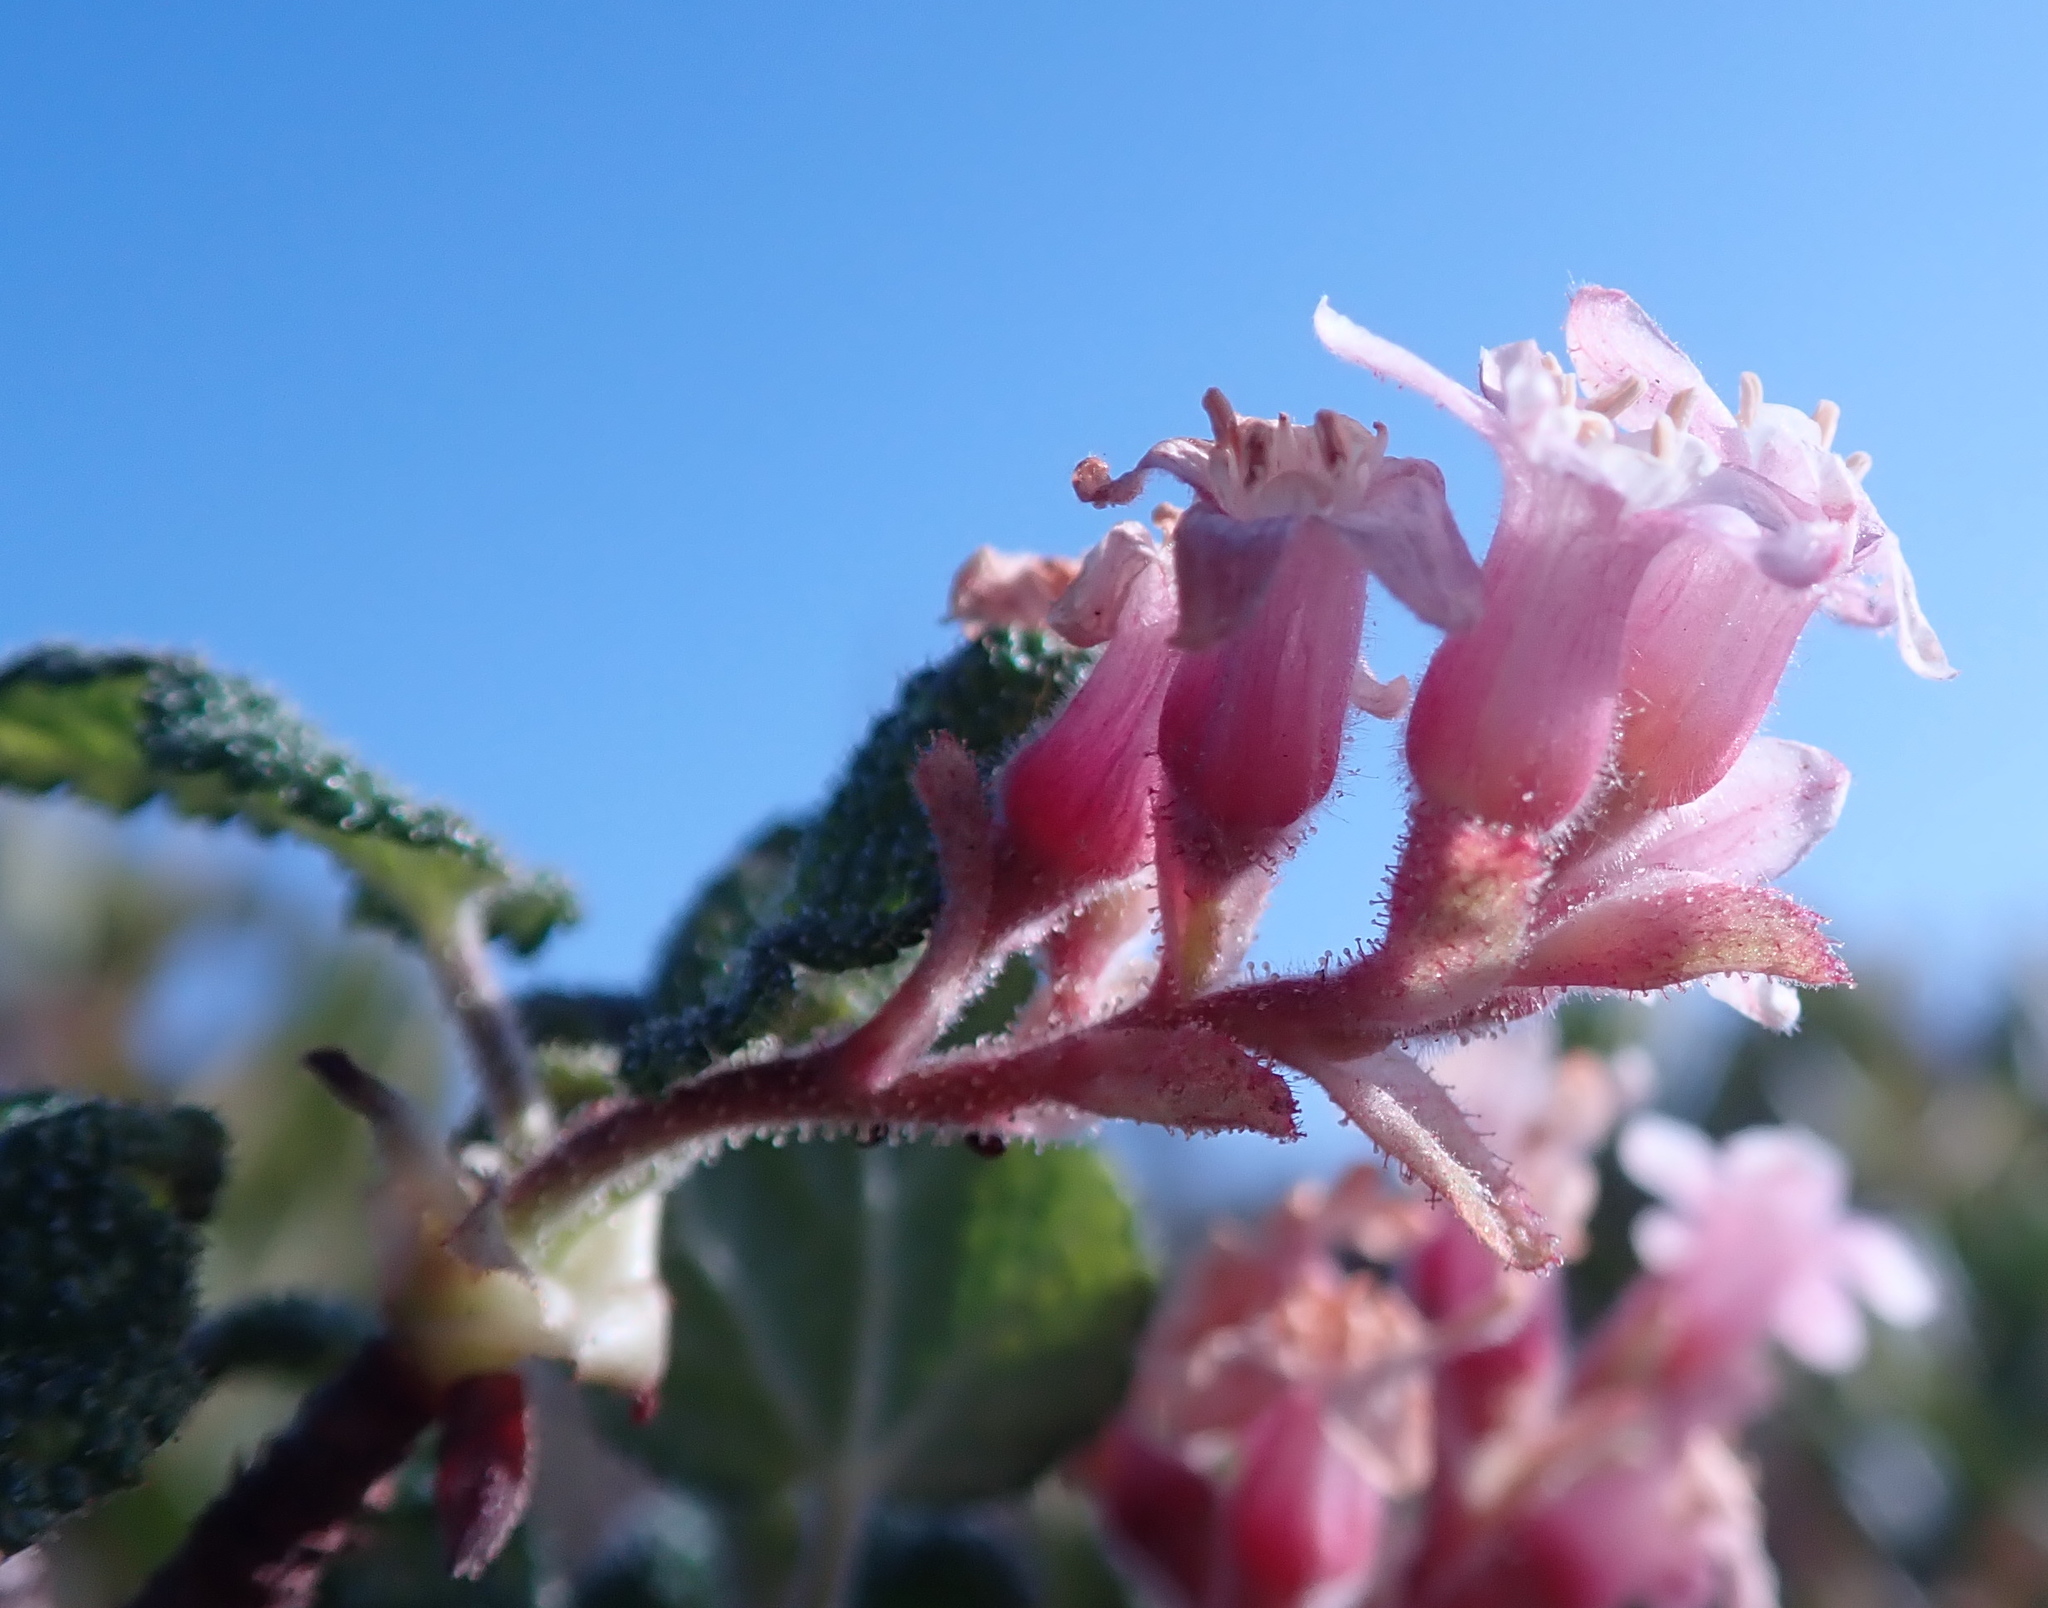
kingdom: Plantae
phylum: Tracheophyta
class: Magnoliopsida
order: Saxifragales
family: Grossulariaceae
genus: Ribes
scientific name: Ribes malvaceum
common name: Chaparral currant
